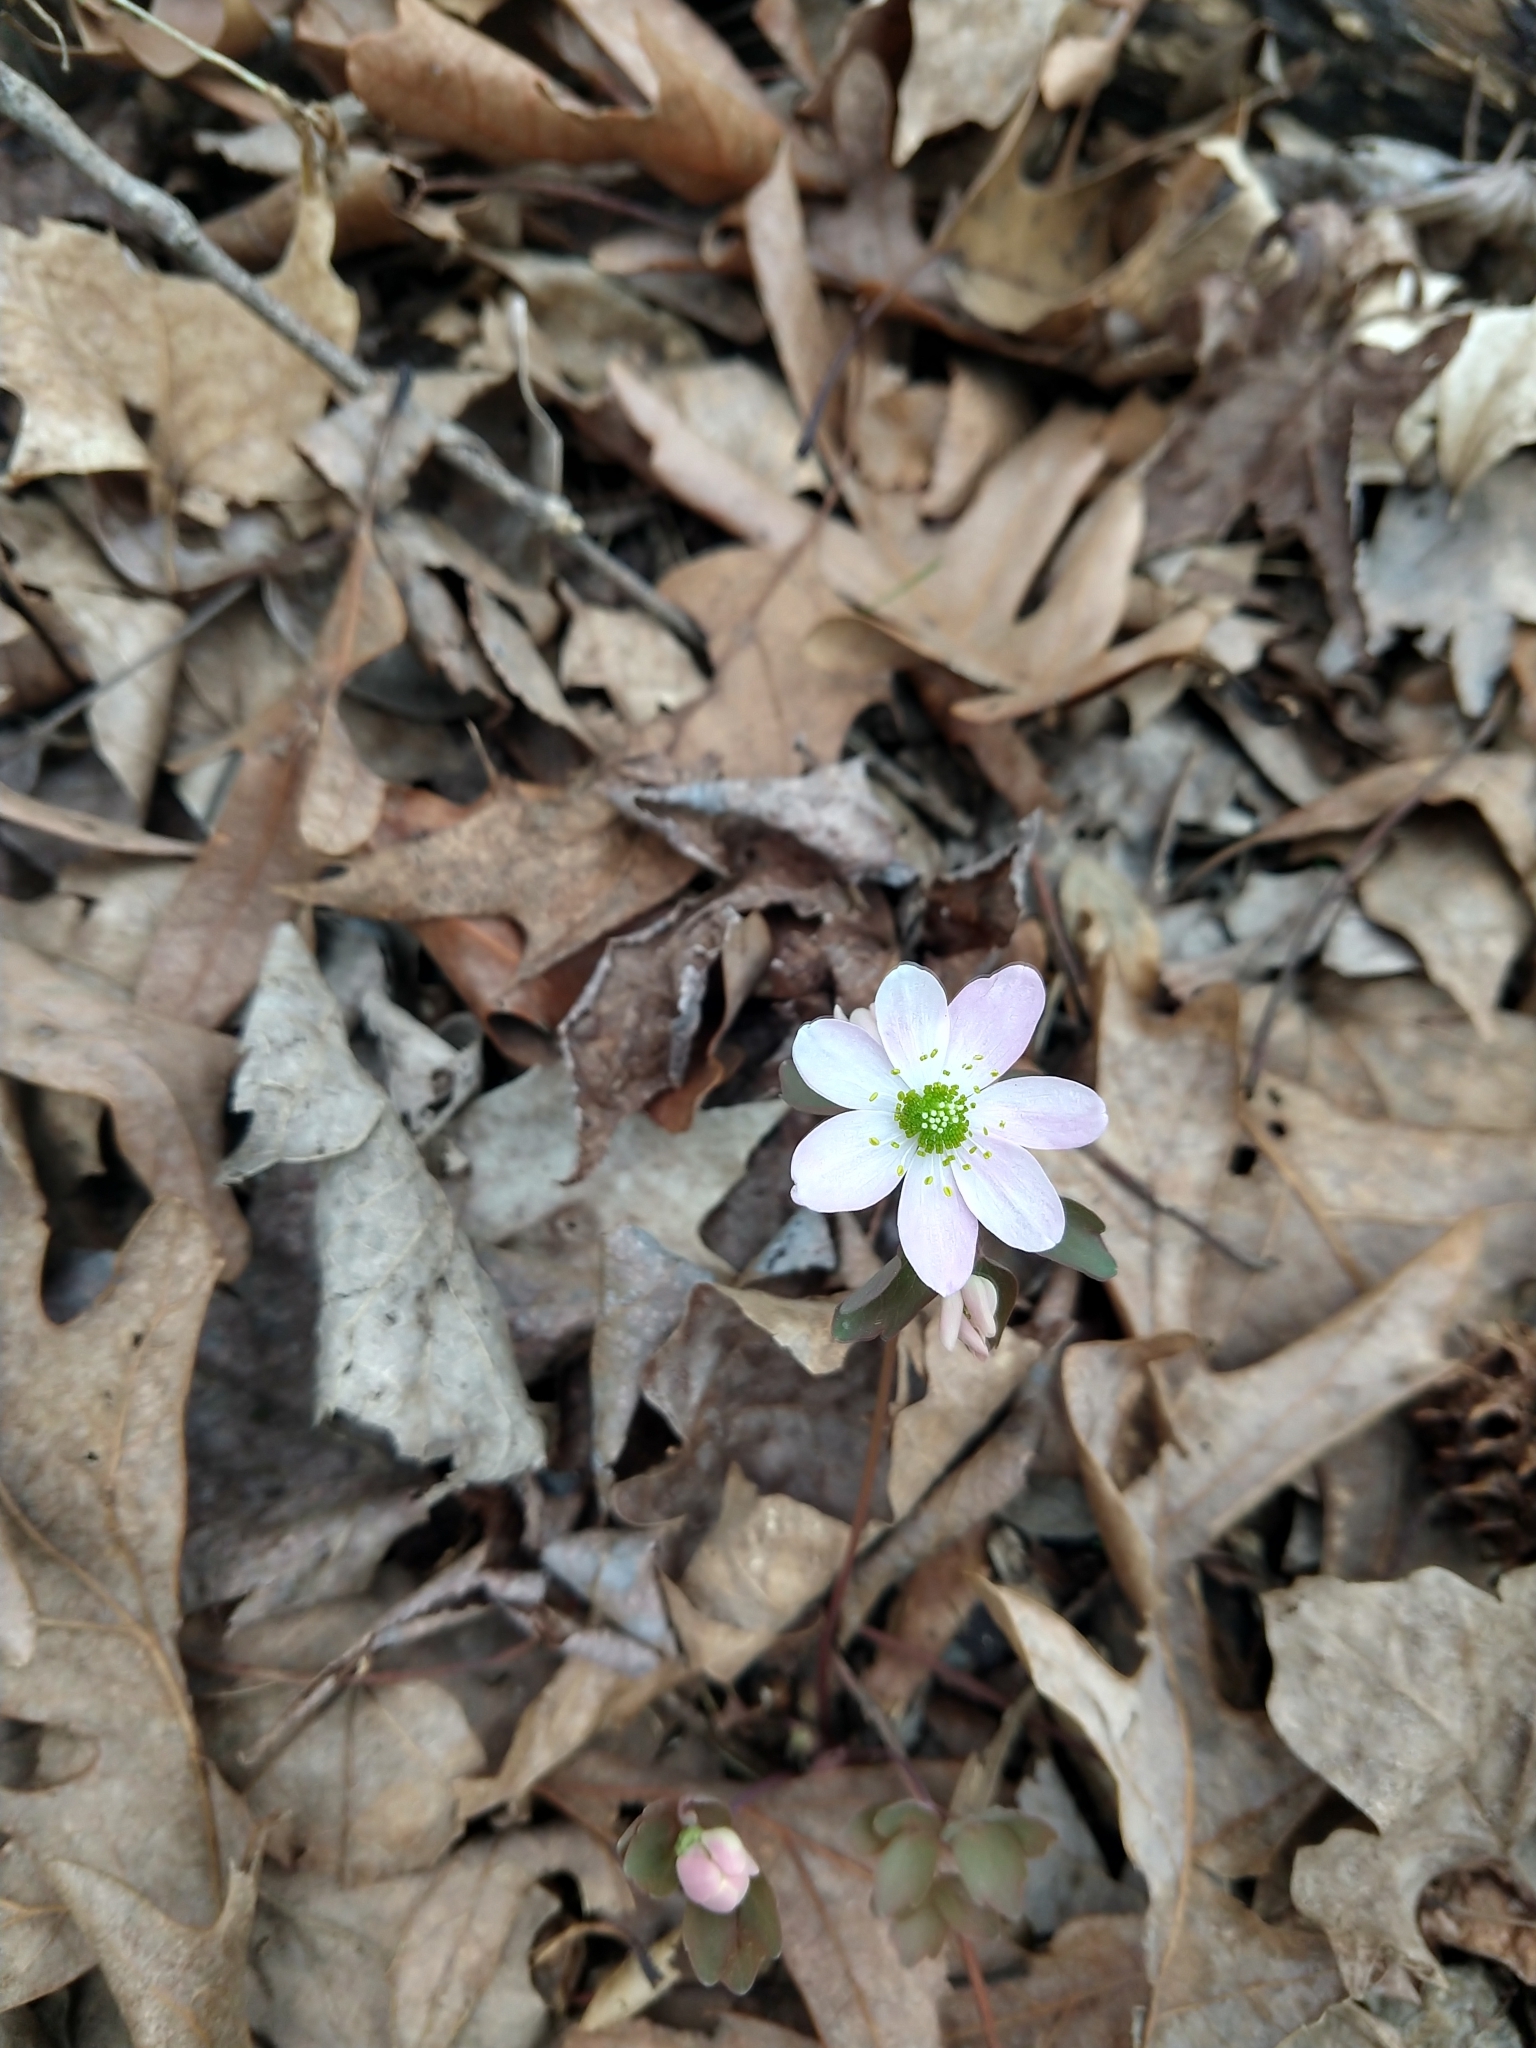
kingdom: Plantae
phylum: Tracheophyta
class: Magnoliopsida
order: Ranunculales
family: Ranunculaceae
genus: Thalictrum
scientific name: Thalictrum thalictroides
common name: Rue-anemone
